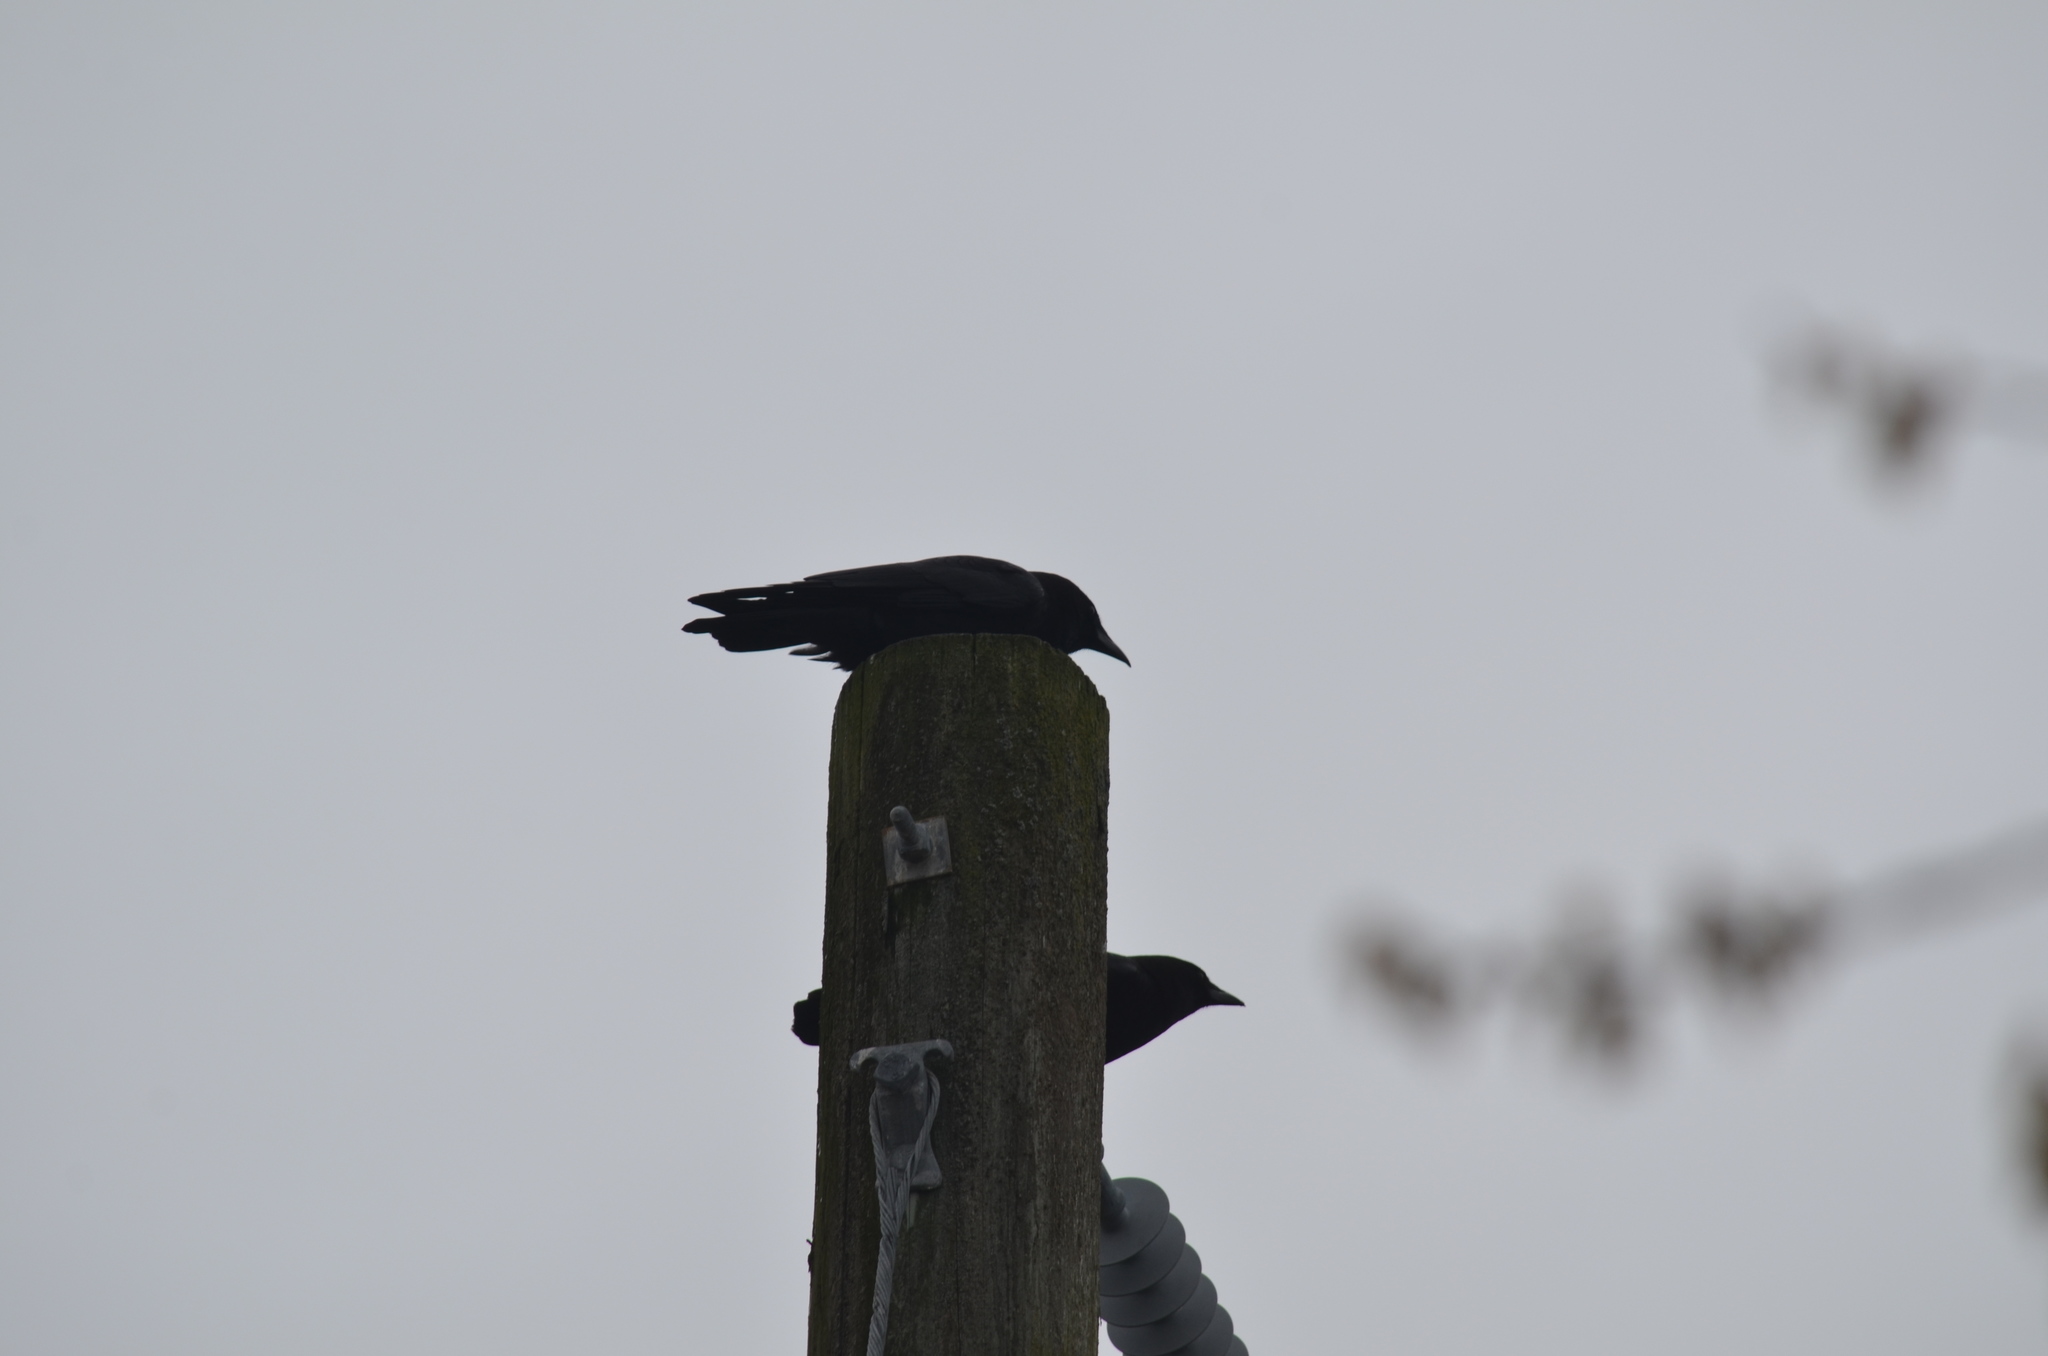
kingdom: Animalia
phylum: Chordata
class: Aves
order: Passeriformes
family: Corvidae
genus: Corvus
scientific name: Corvus brachyrhynchos
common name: American crow
